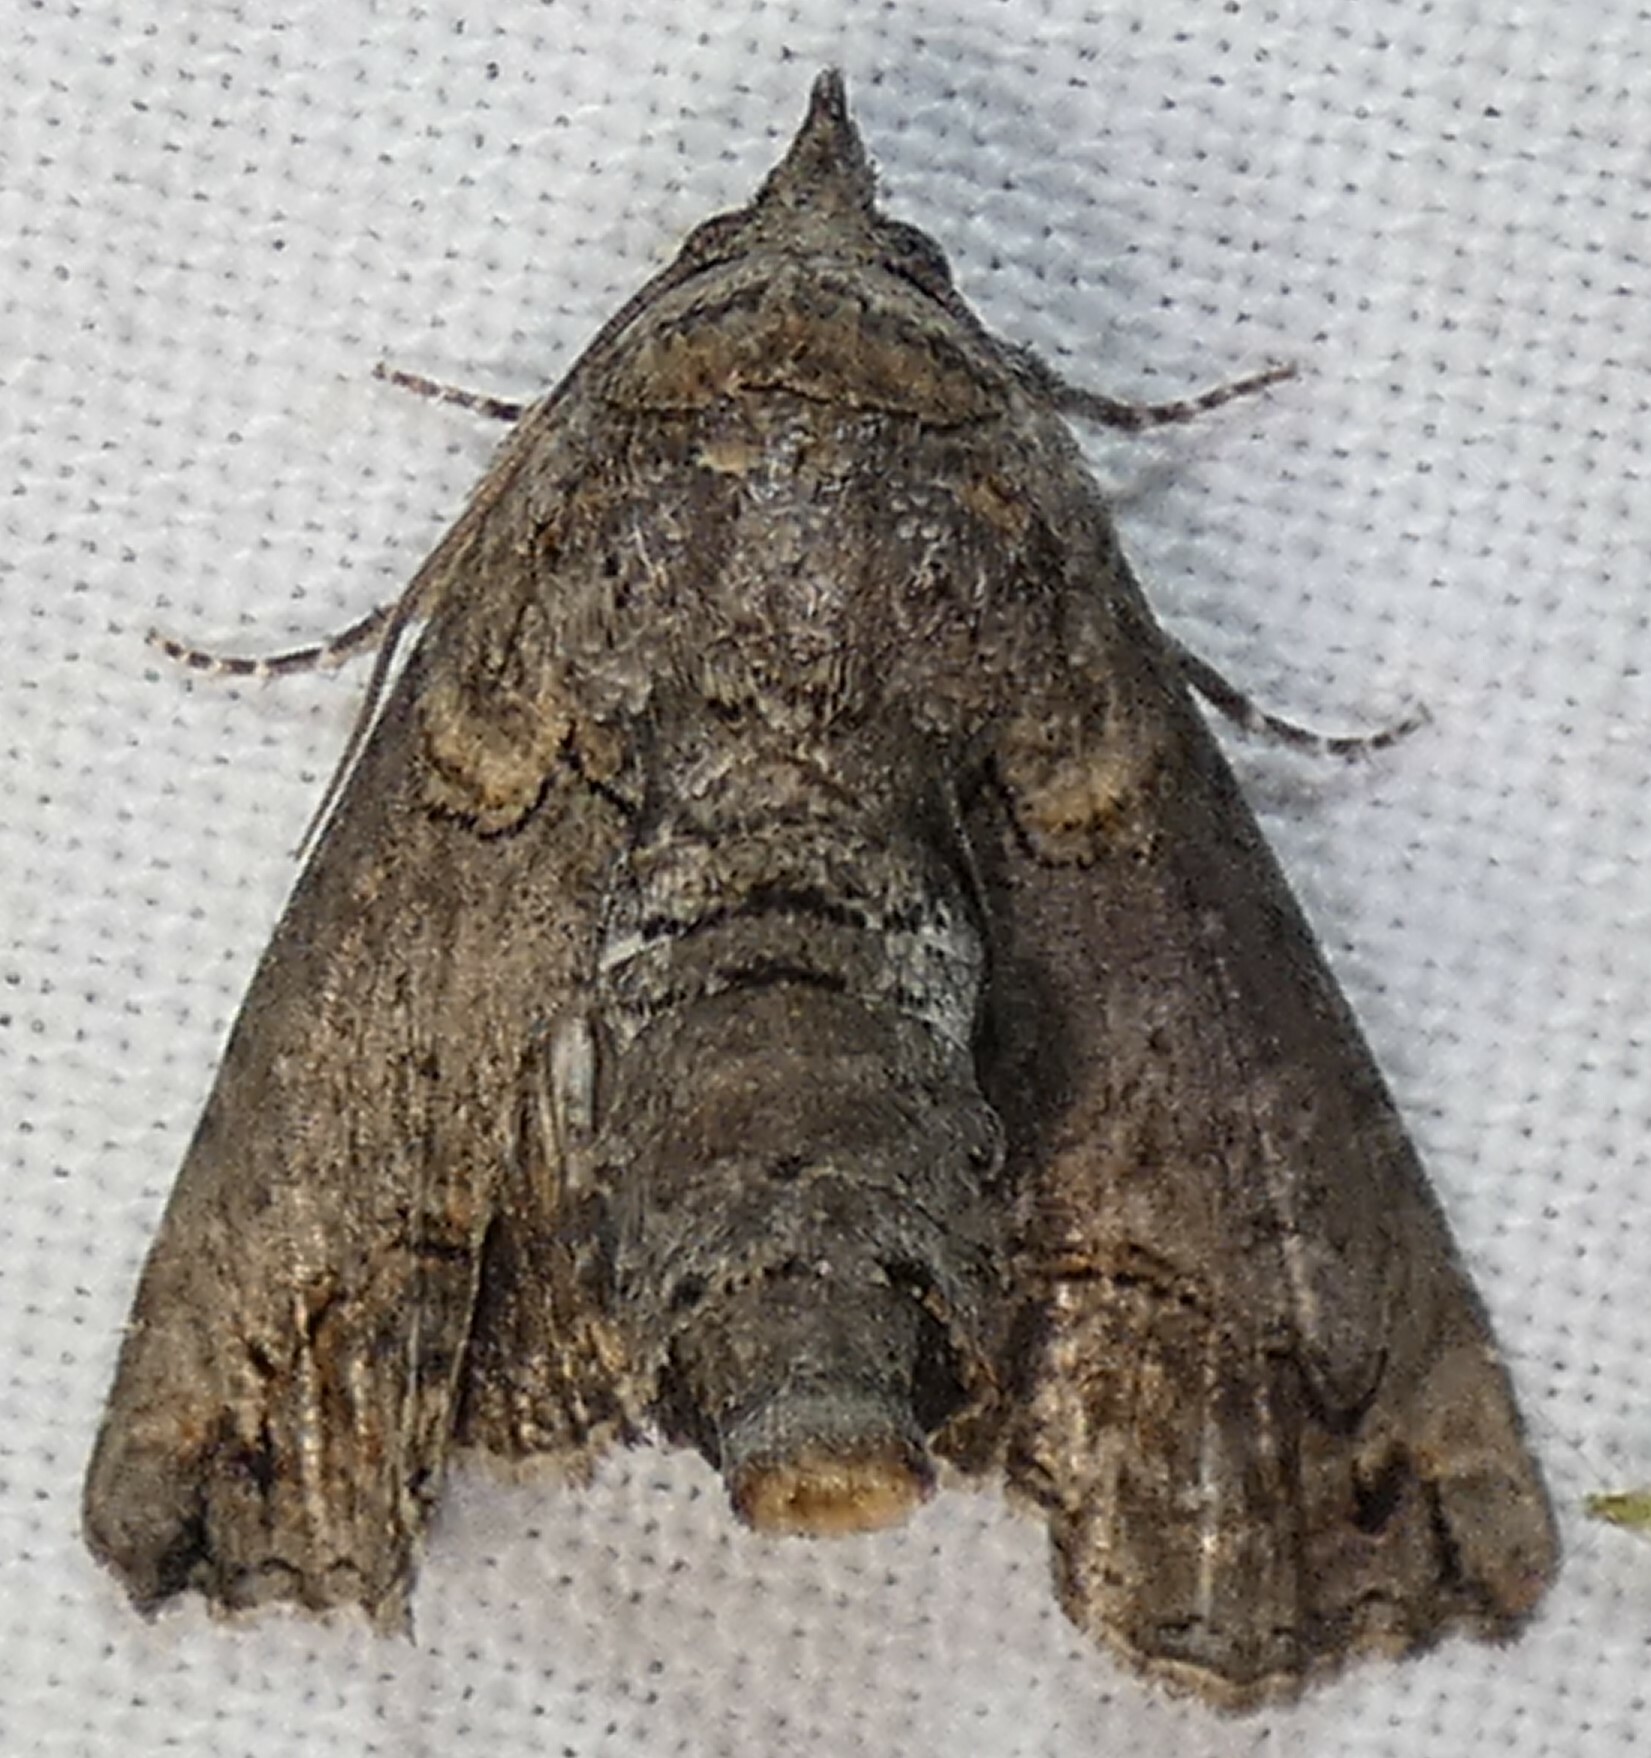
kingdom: Animalia
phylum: Arthropoda
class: Insecta
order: Lepidoptera
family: Euteliidae
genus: Paectes
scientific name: Paectes abrostoloides
